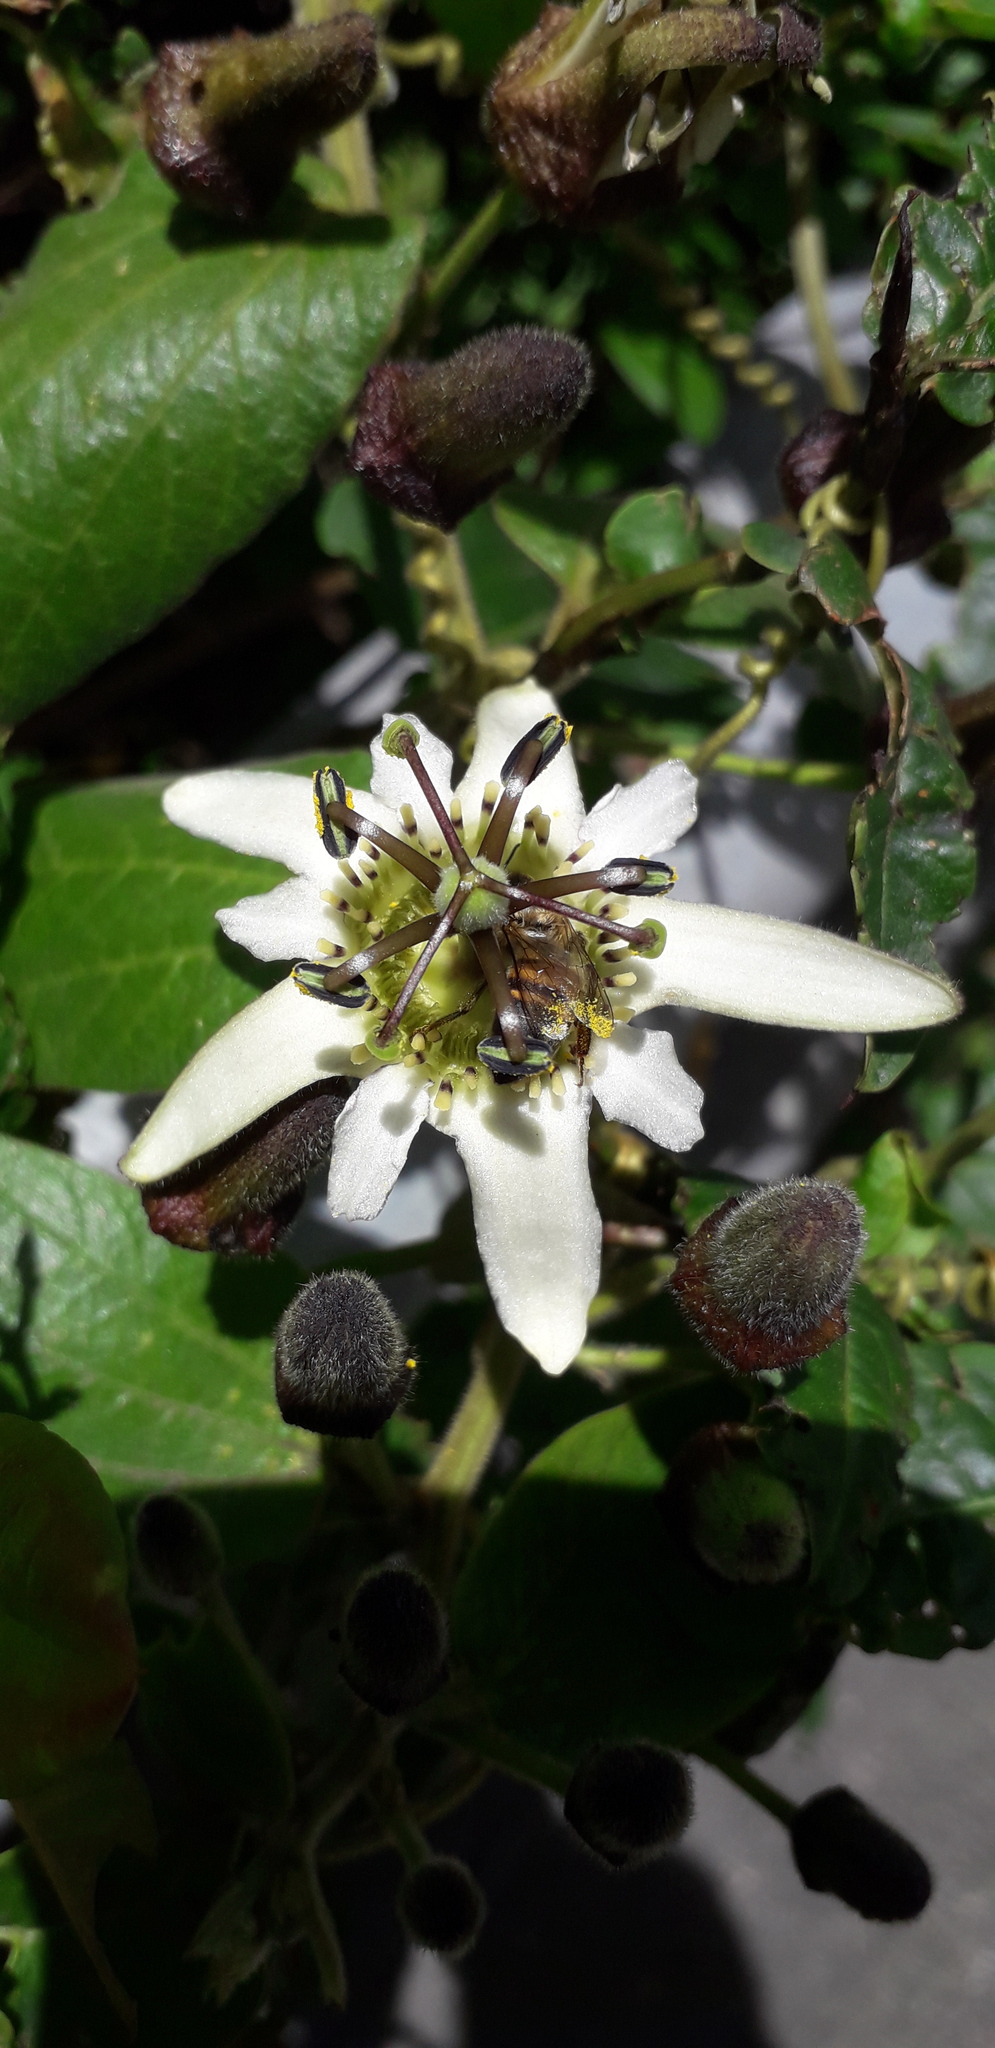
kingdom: Plantae
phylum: Tracheophyta
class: Magnoliopsida
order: Malpighiales
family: Passifloraceae
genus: Passiflora
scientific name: Passiflora bogotensis
